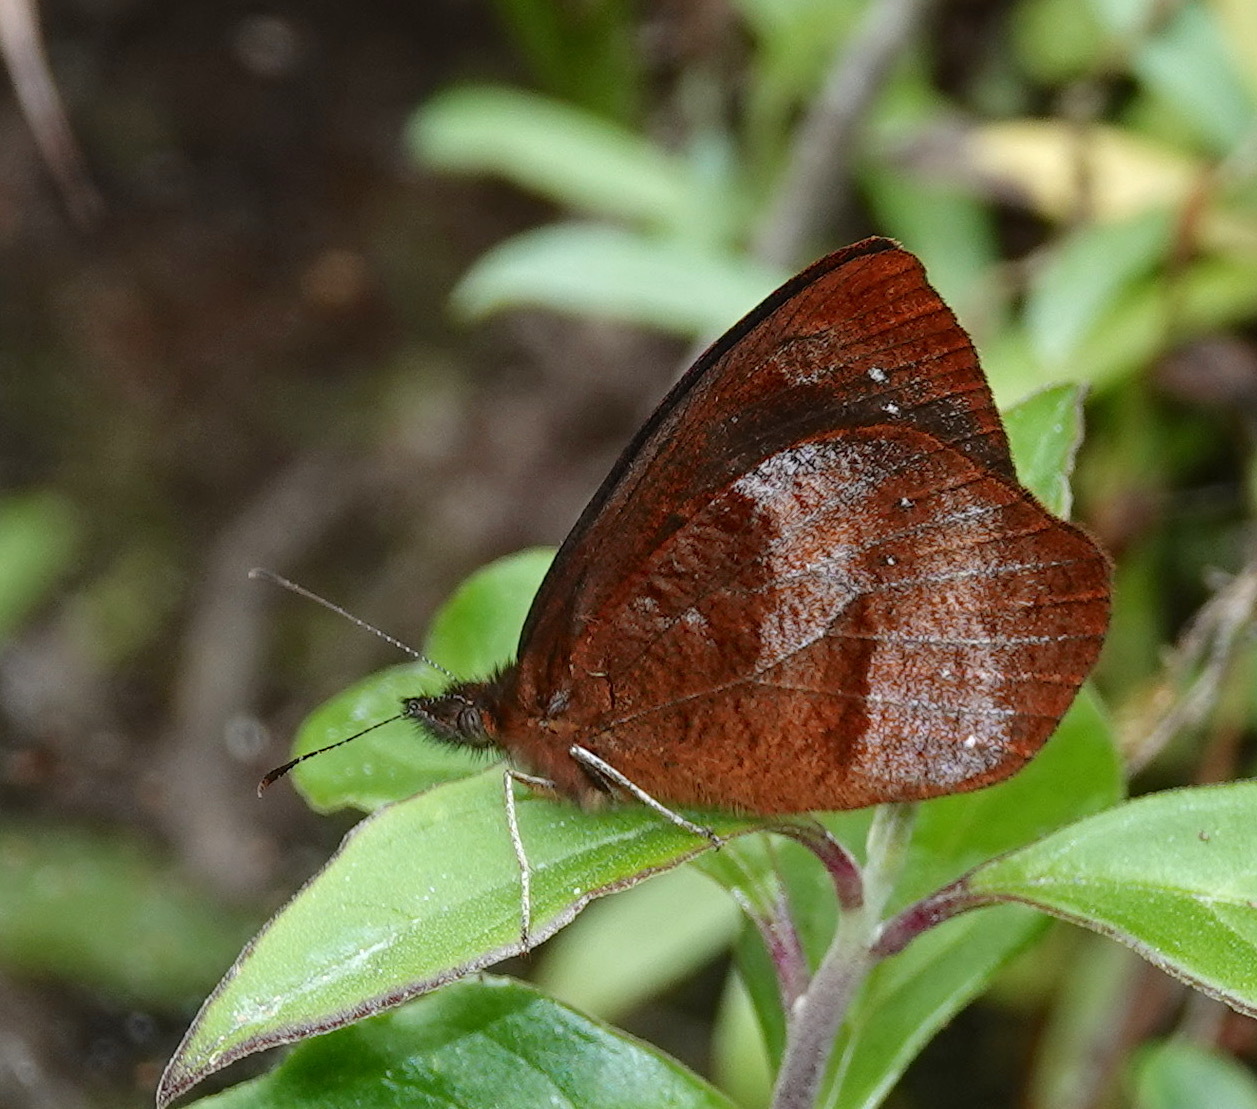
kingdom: Animalia
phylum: Arthropoda
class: Insecta
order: Lepidoptera
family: Nymphalidae
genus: Lymanopoda
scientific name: Lymanopoda obsoleta
